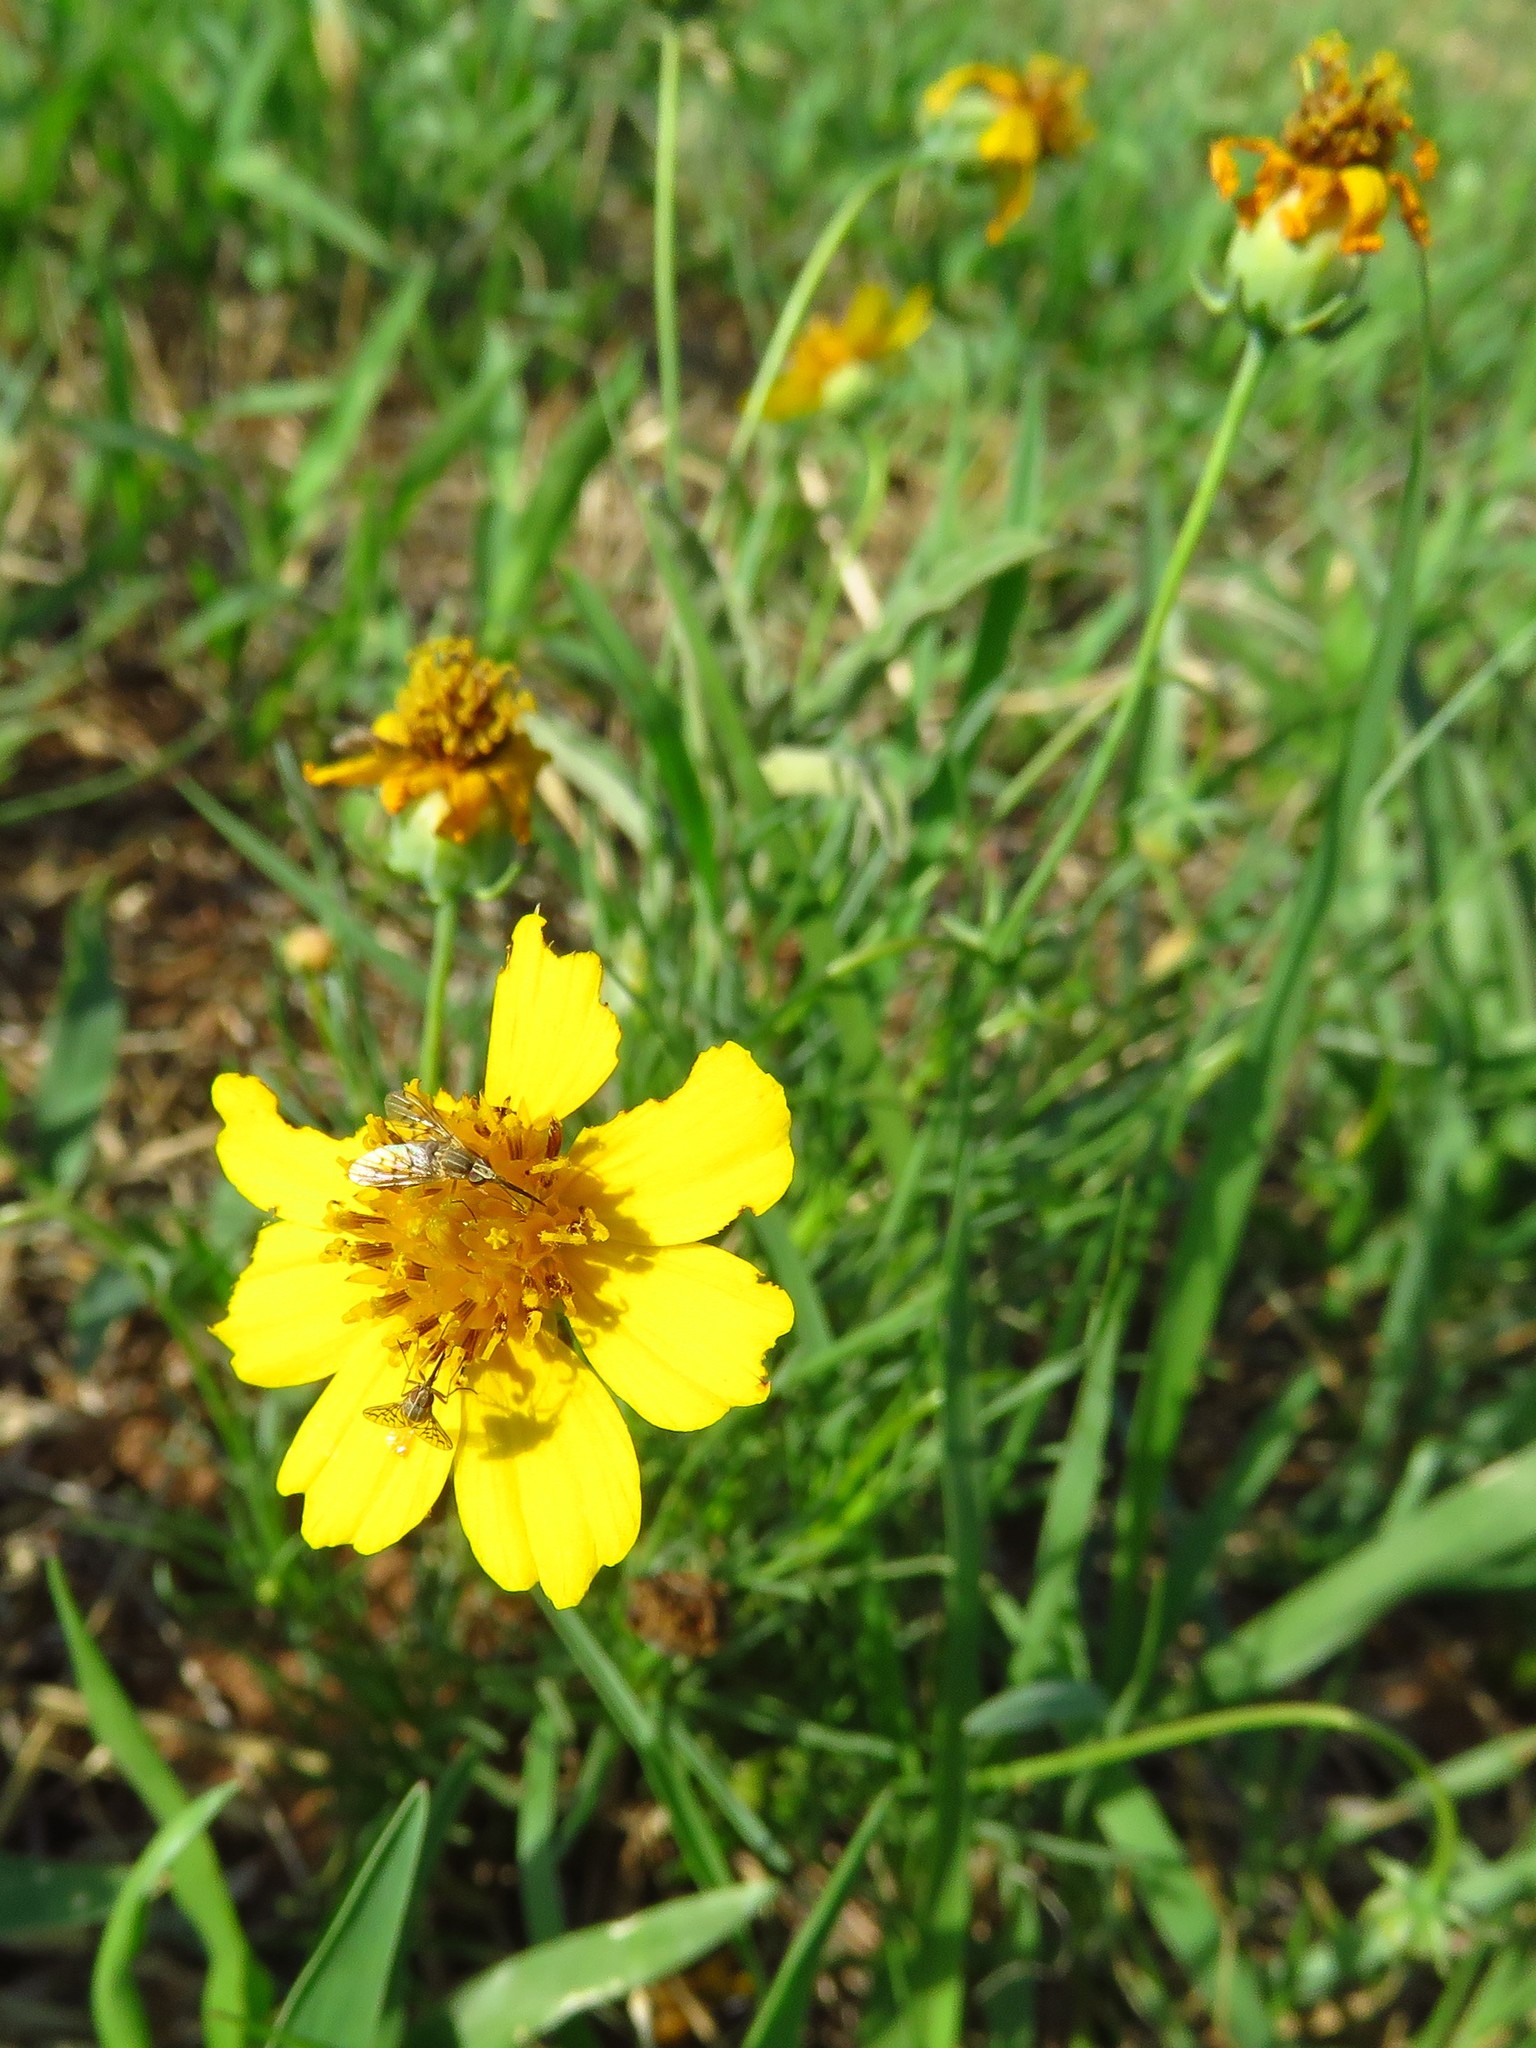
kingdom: Plantae
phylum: Tracheophyta
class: Magnoliopsida
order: Asterales
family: Asteraceae
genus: Thelesperma
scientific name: Thelesperma filifolium
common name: Stiff greenthread
